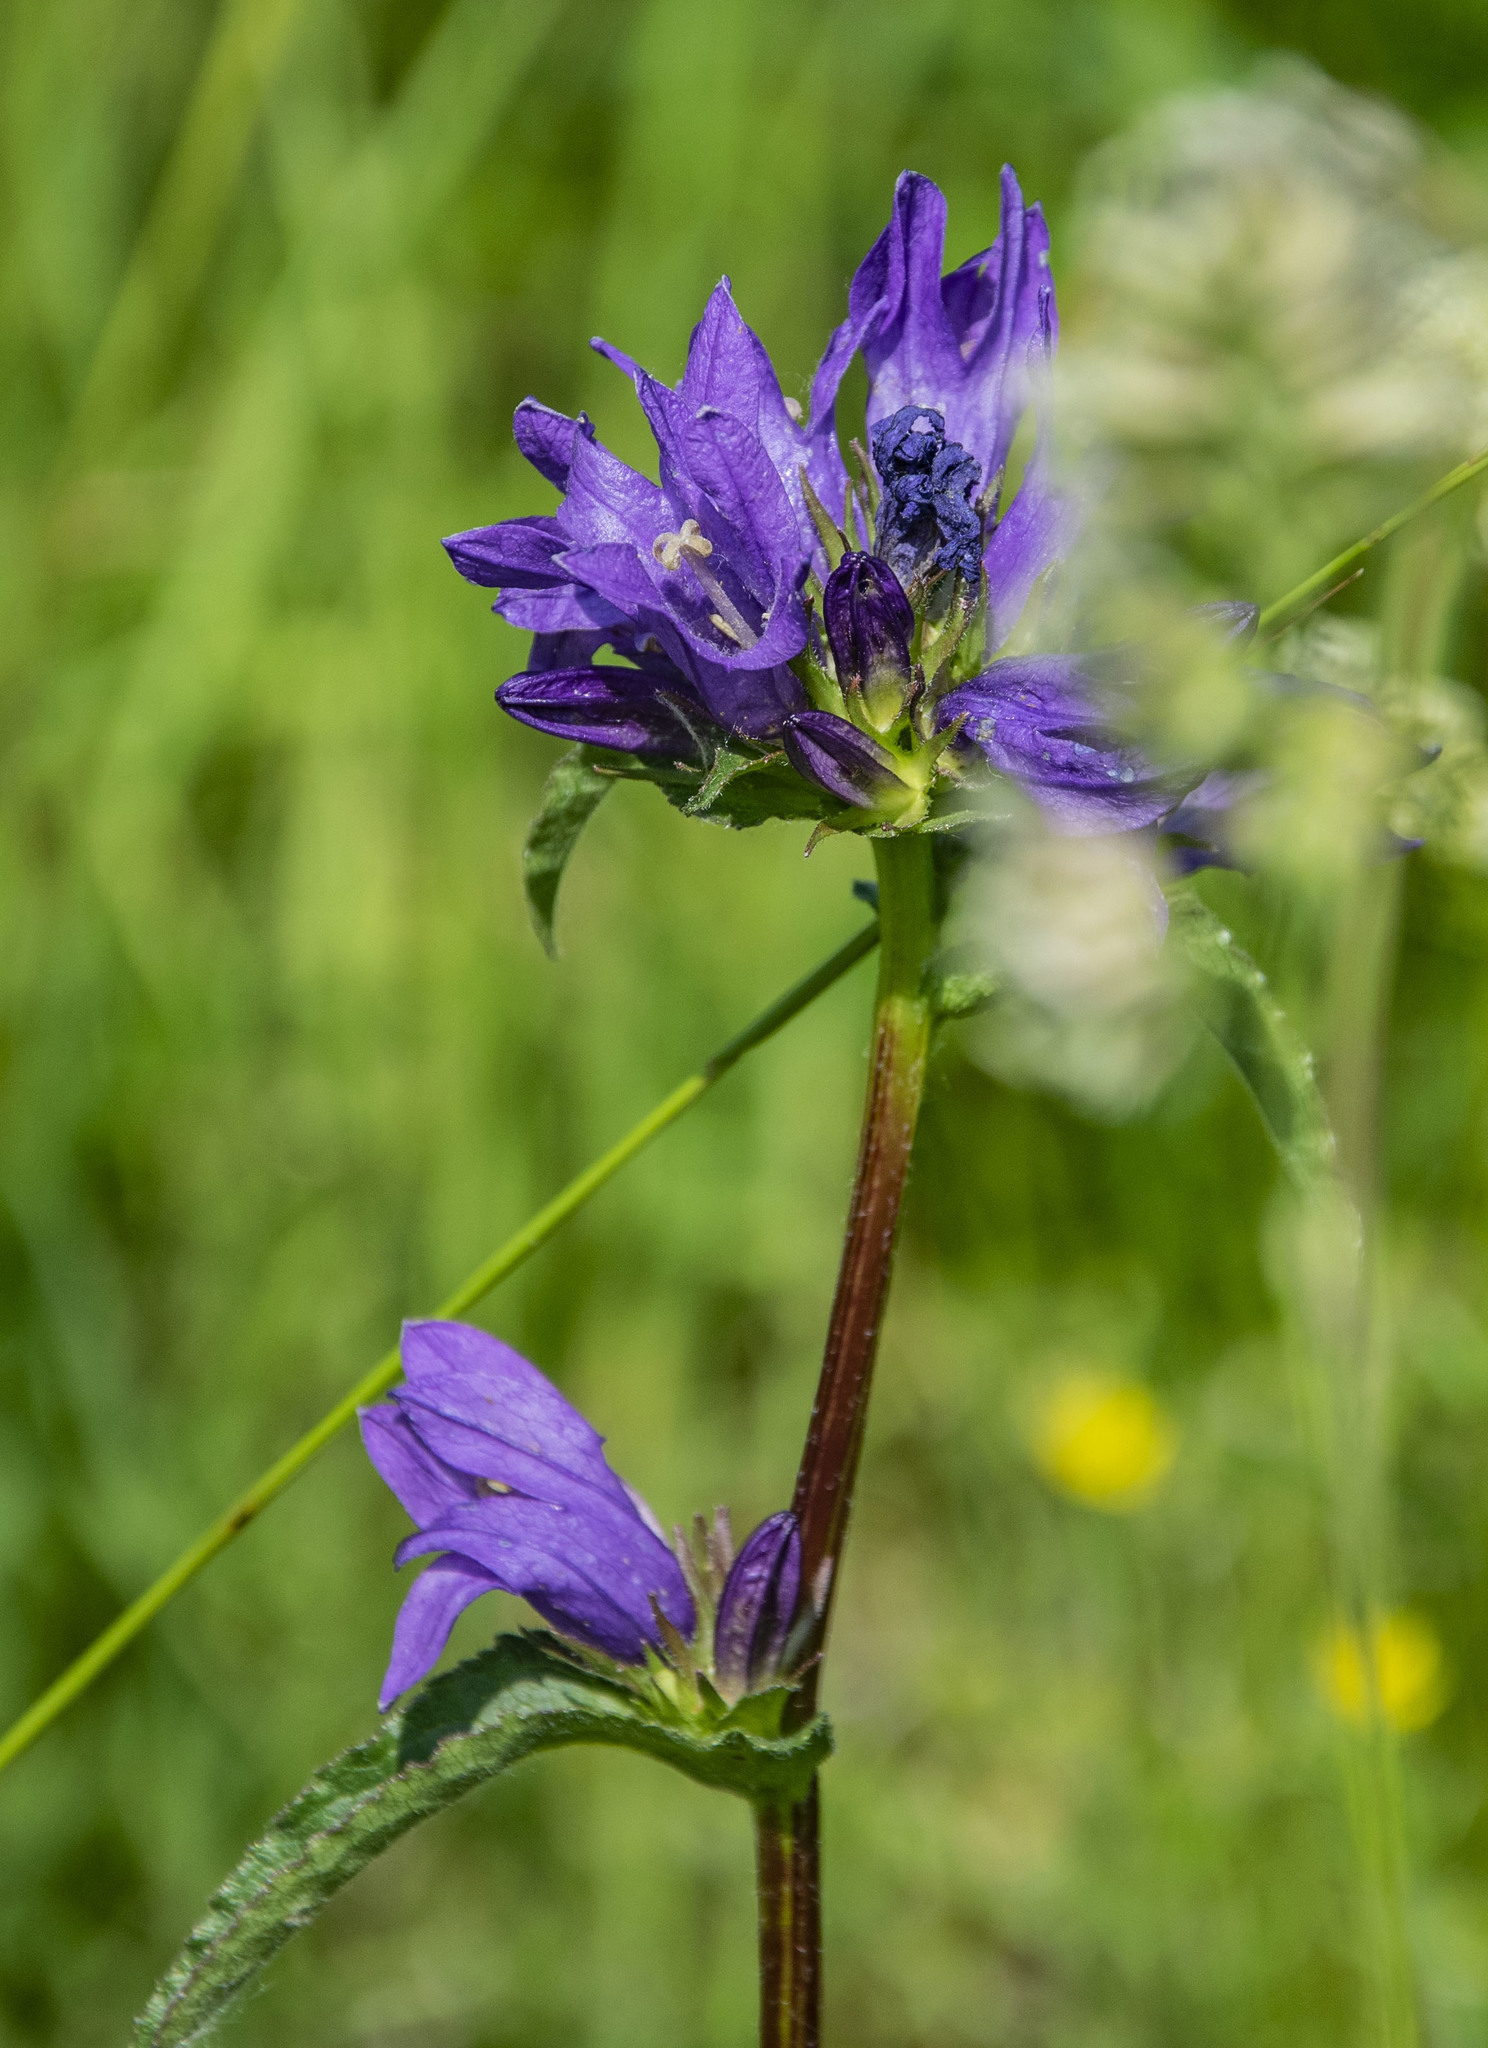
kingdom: Plantae
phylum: Tracheophyta
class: Magnoliopsida
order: Asterales
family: Campanulaceae
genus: Campanula
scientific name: Campanula glomerata
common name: Clustered bellflower
